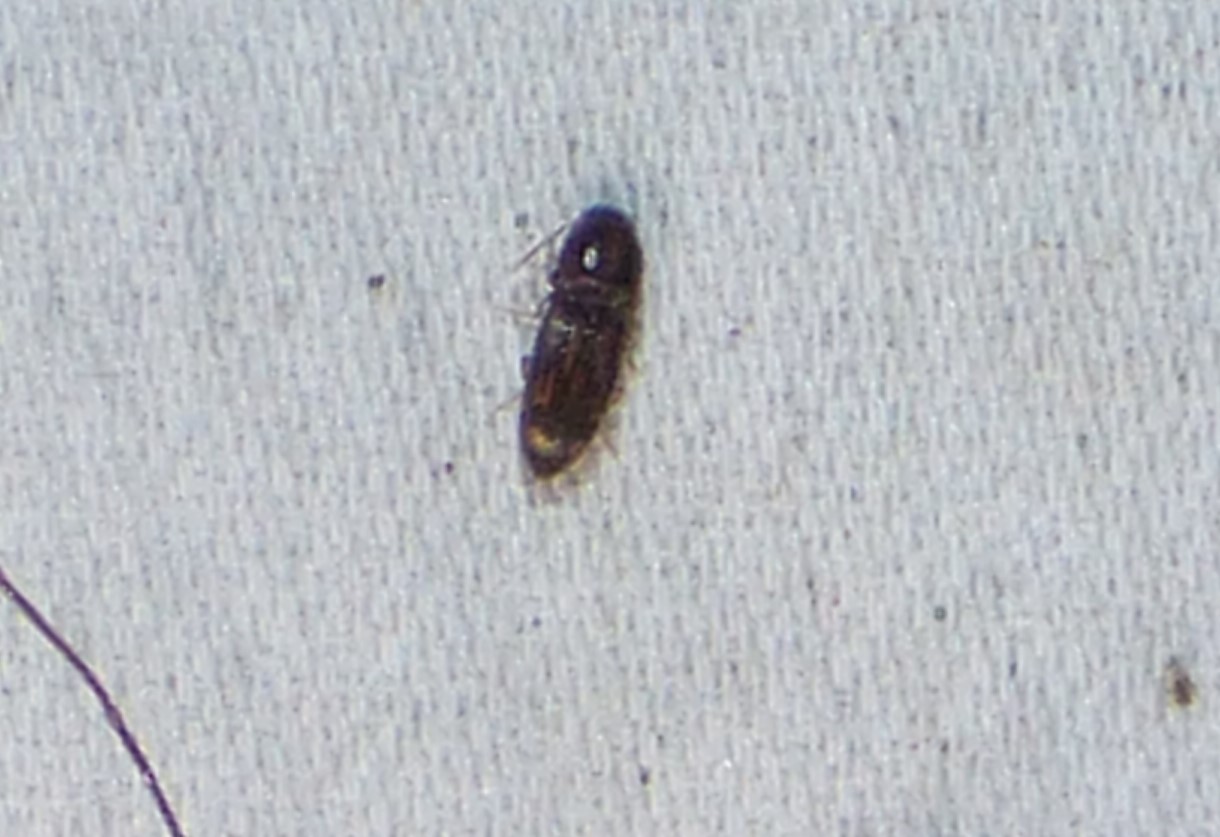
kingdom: Animalia
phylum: Arthropoda
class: Insecta
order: Coleoptera
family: Elateridae
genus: Monocrepidius
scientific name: Monocrepidius bellus
